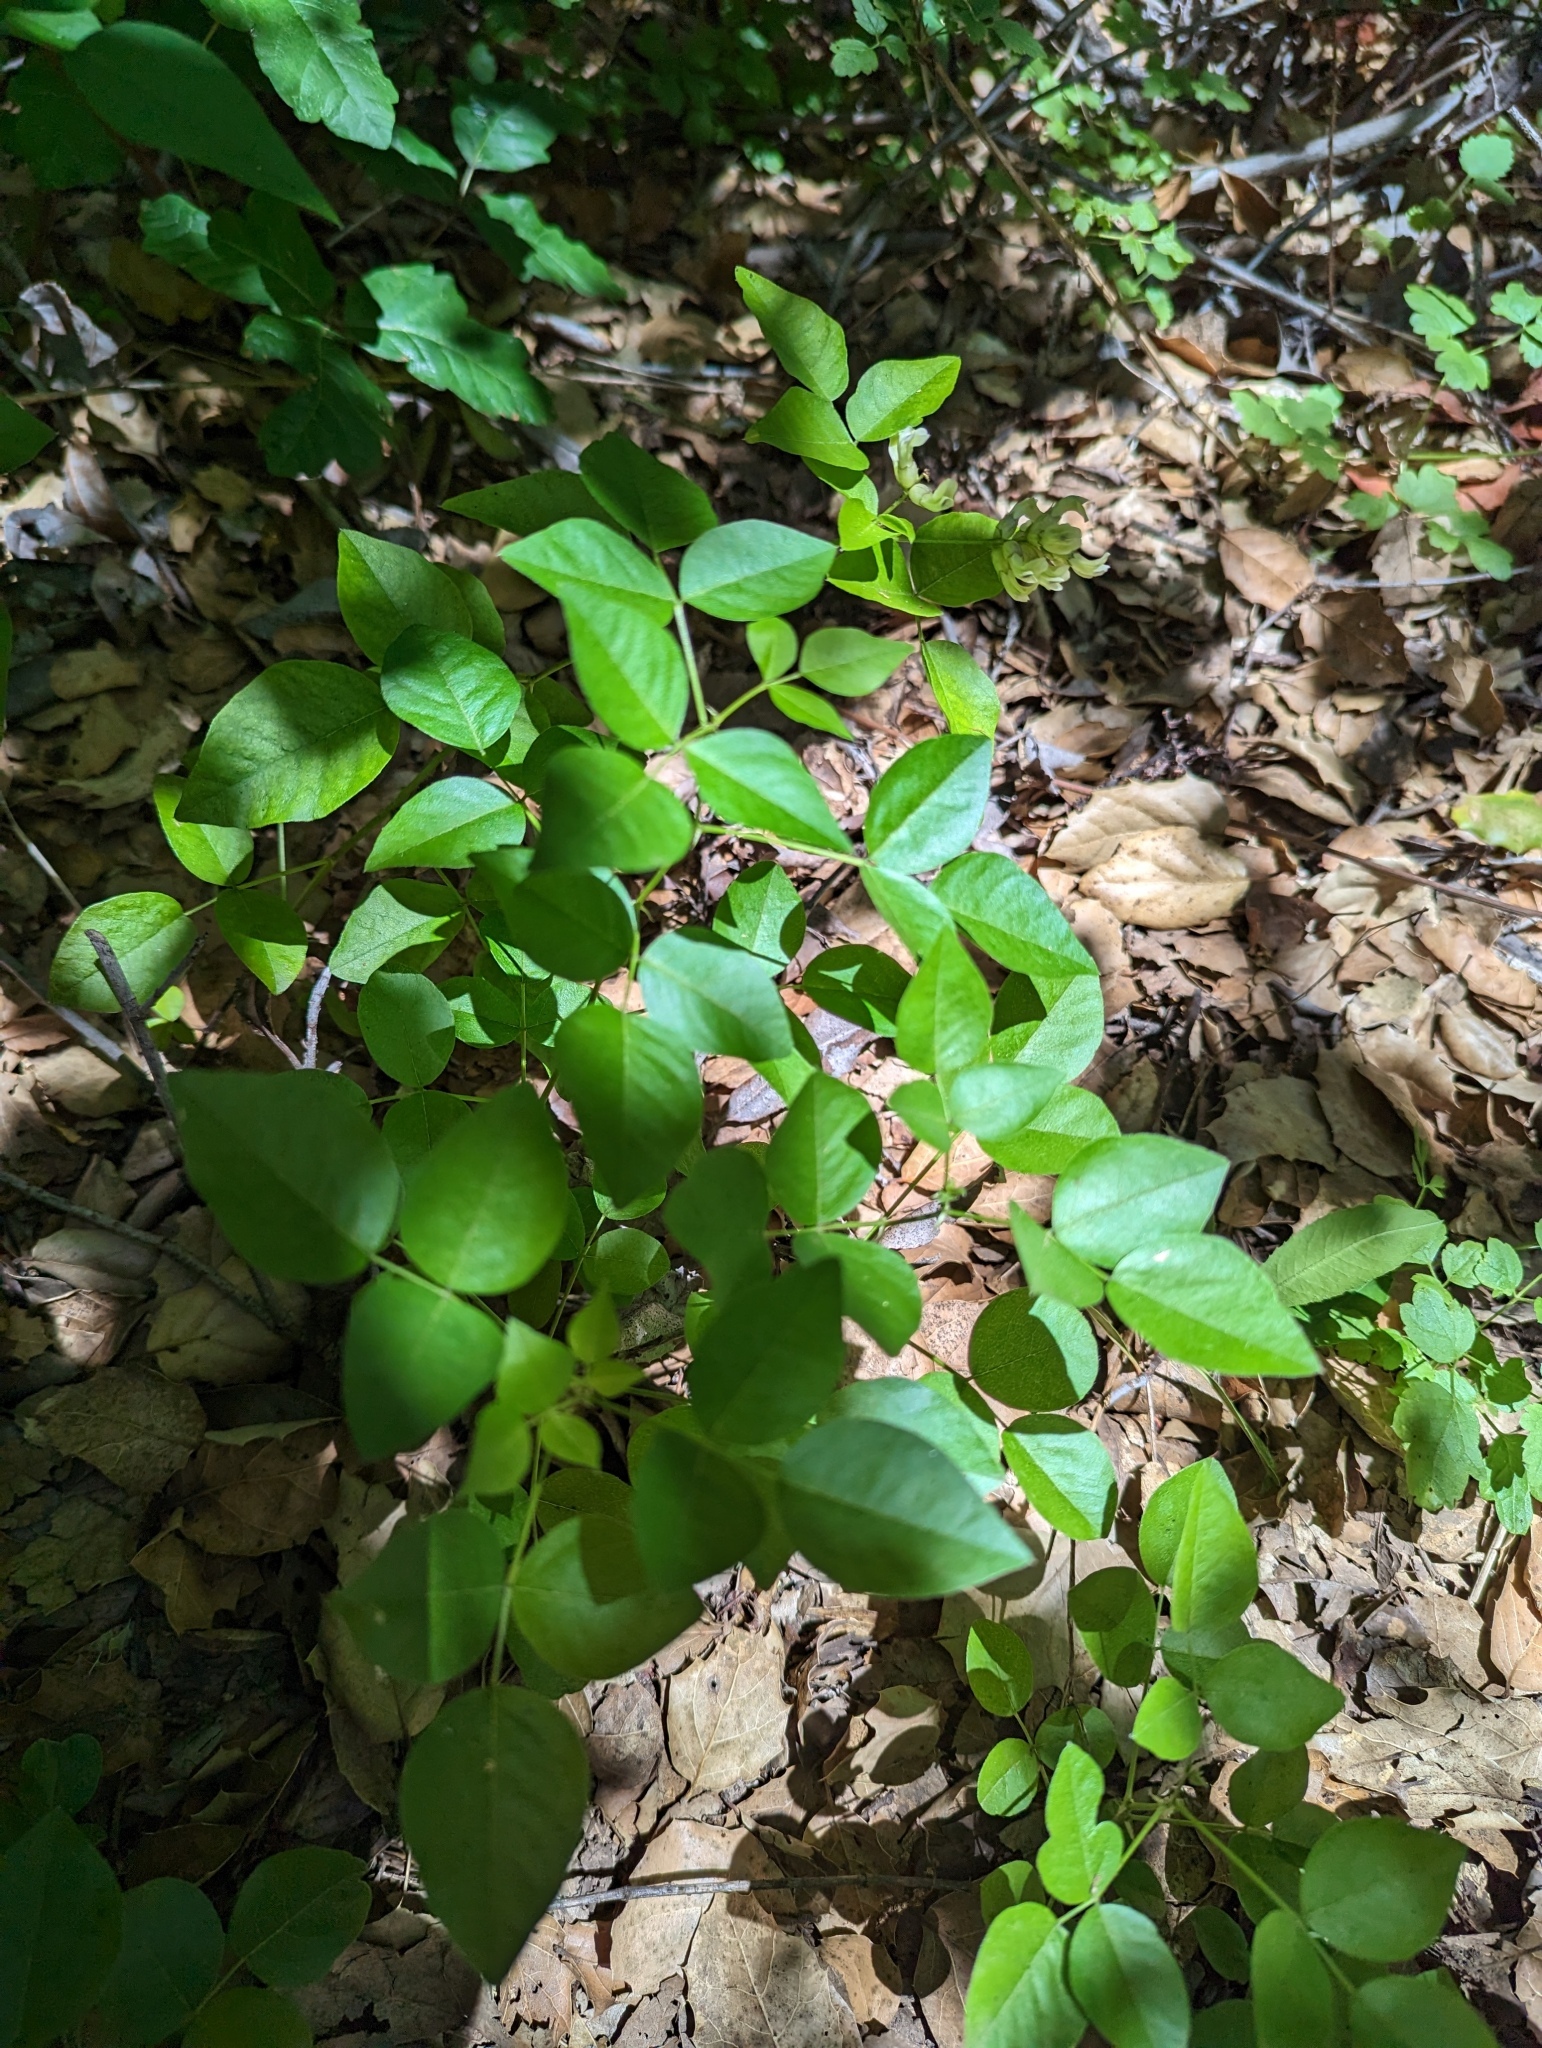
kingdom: Plantae
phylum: Tracheophyta
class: Magnoliopsida
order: Fabales
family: Fabaceae
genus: Rupertia
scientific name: Rupertia physodes
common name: California-tea
